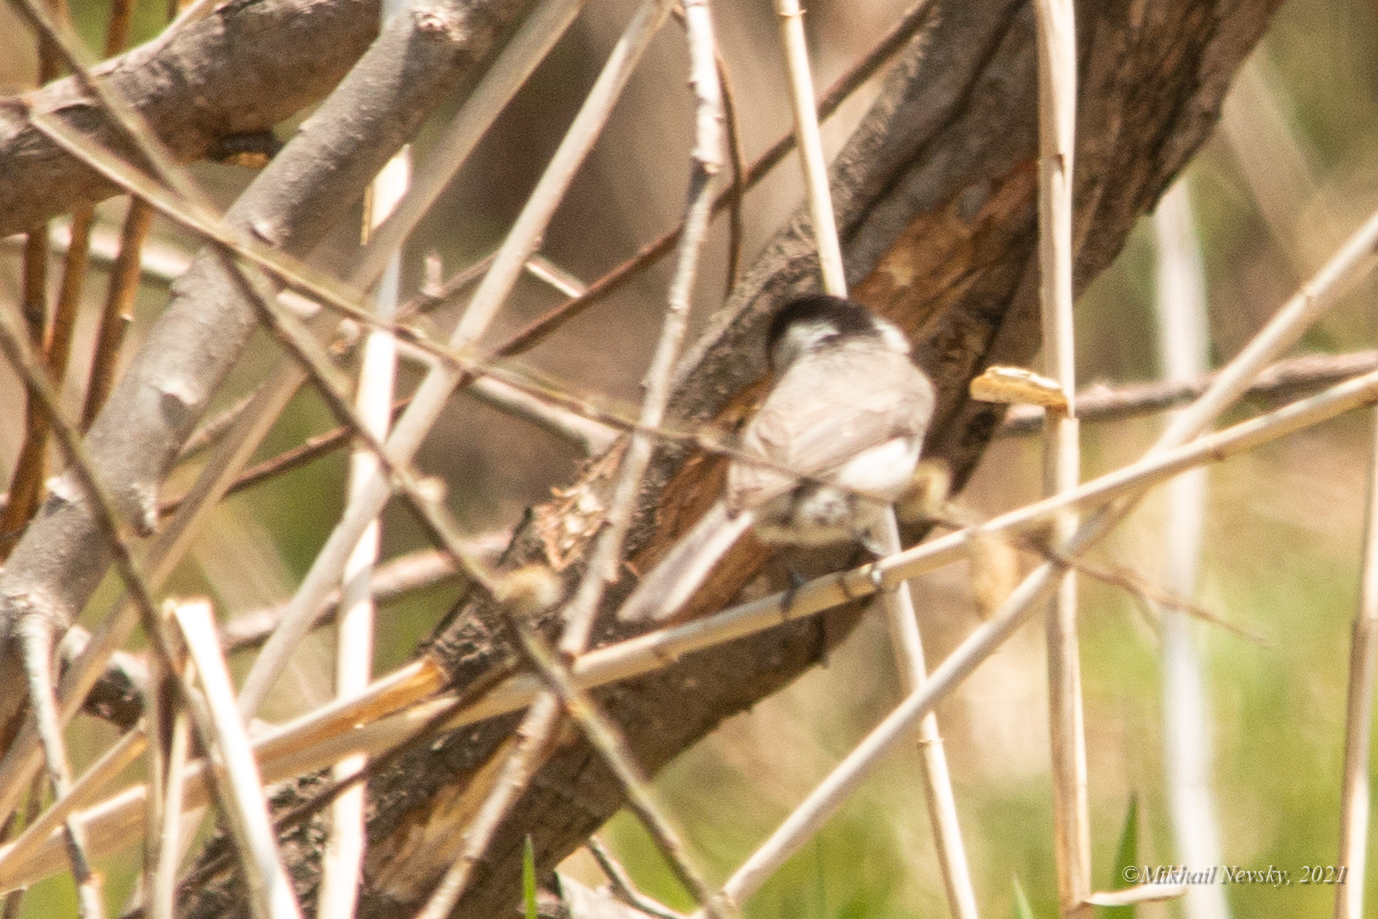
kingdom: Animalia
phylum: Chordata
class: Aves
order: Passeriformes
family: Paridae
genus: Poecile
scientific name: Poecile palustris
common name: Marsh tit
